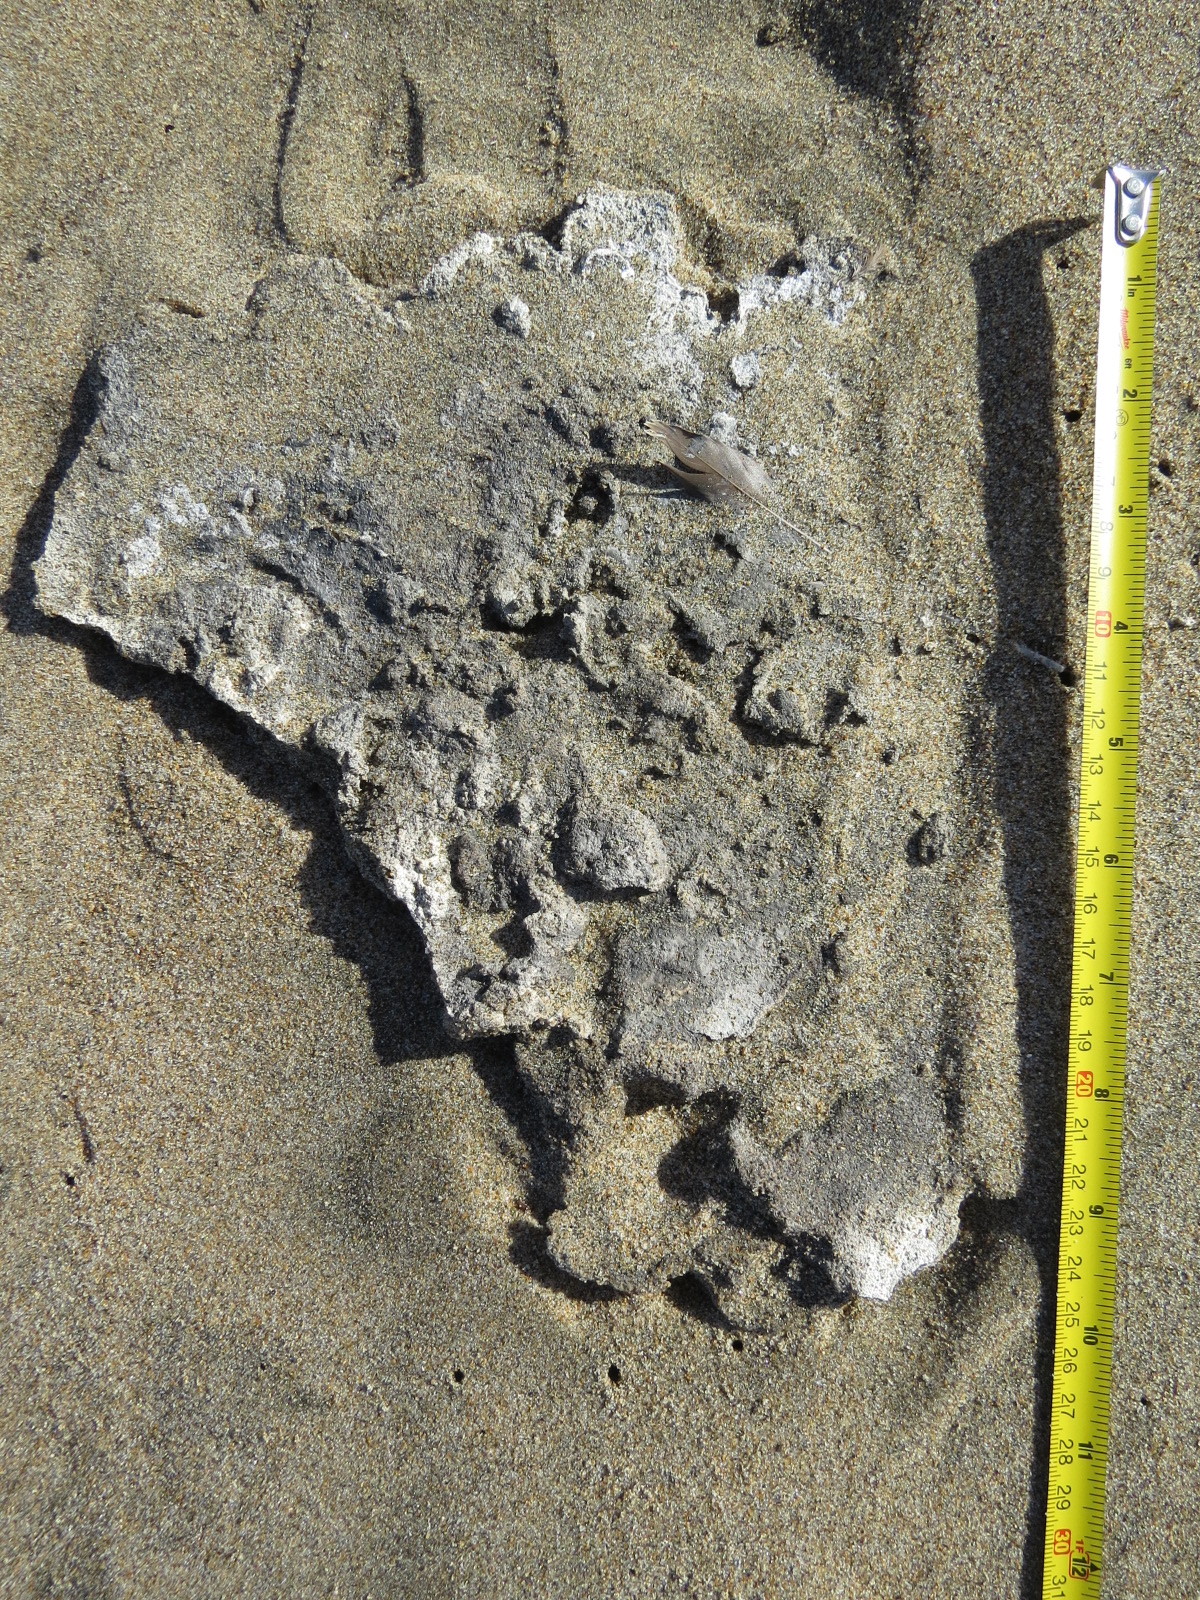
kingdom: Animalia
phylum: Chordata
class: Aves
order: Pelecaniformes
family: Pelecanidae
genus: Pelecanus
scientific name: Pelecanus occidentalis
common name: Brown pelican
